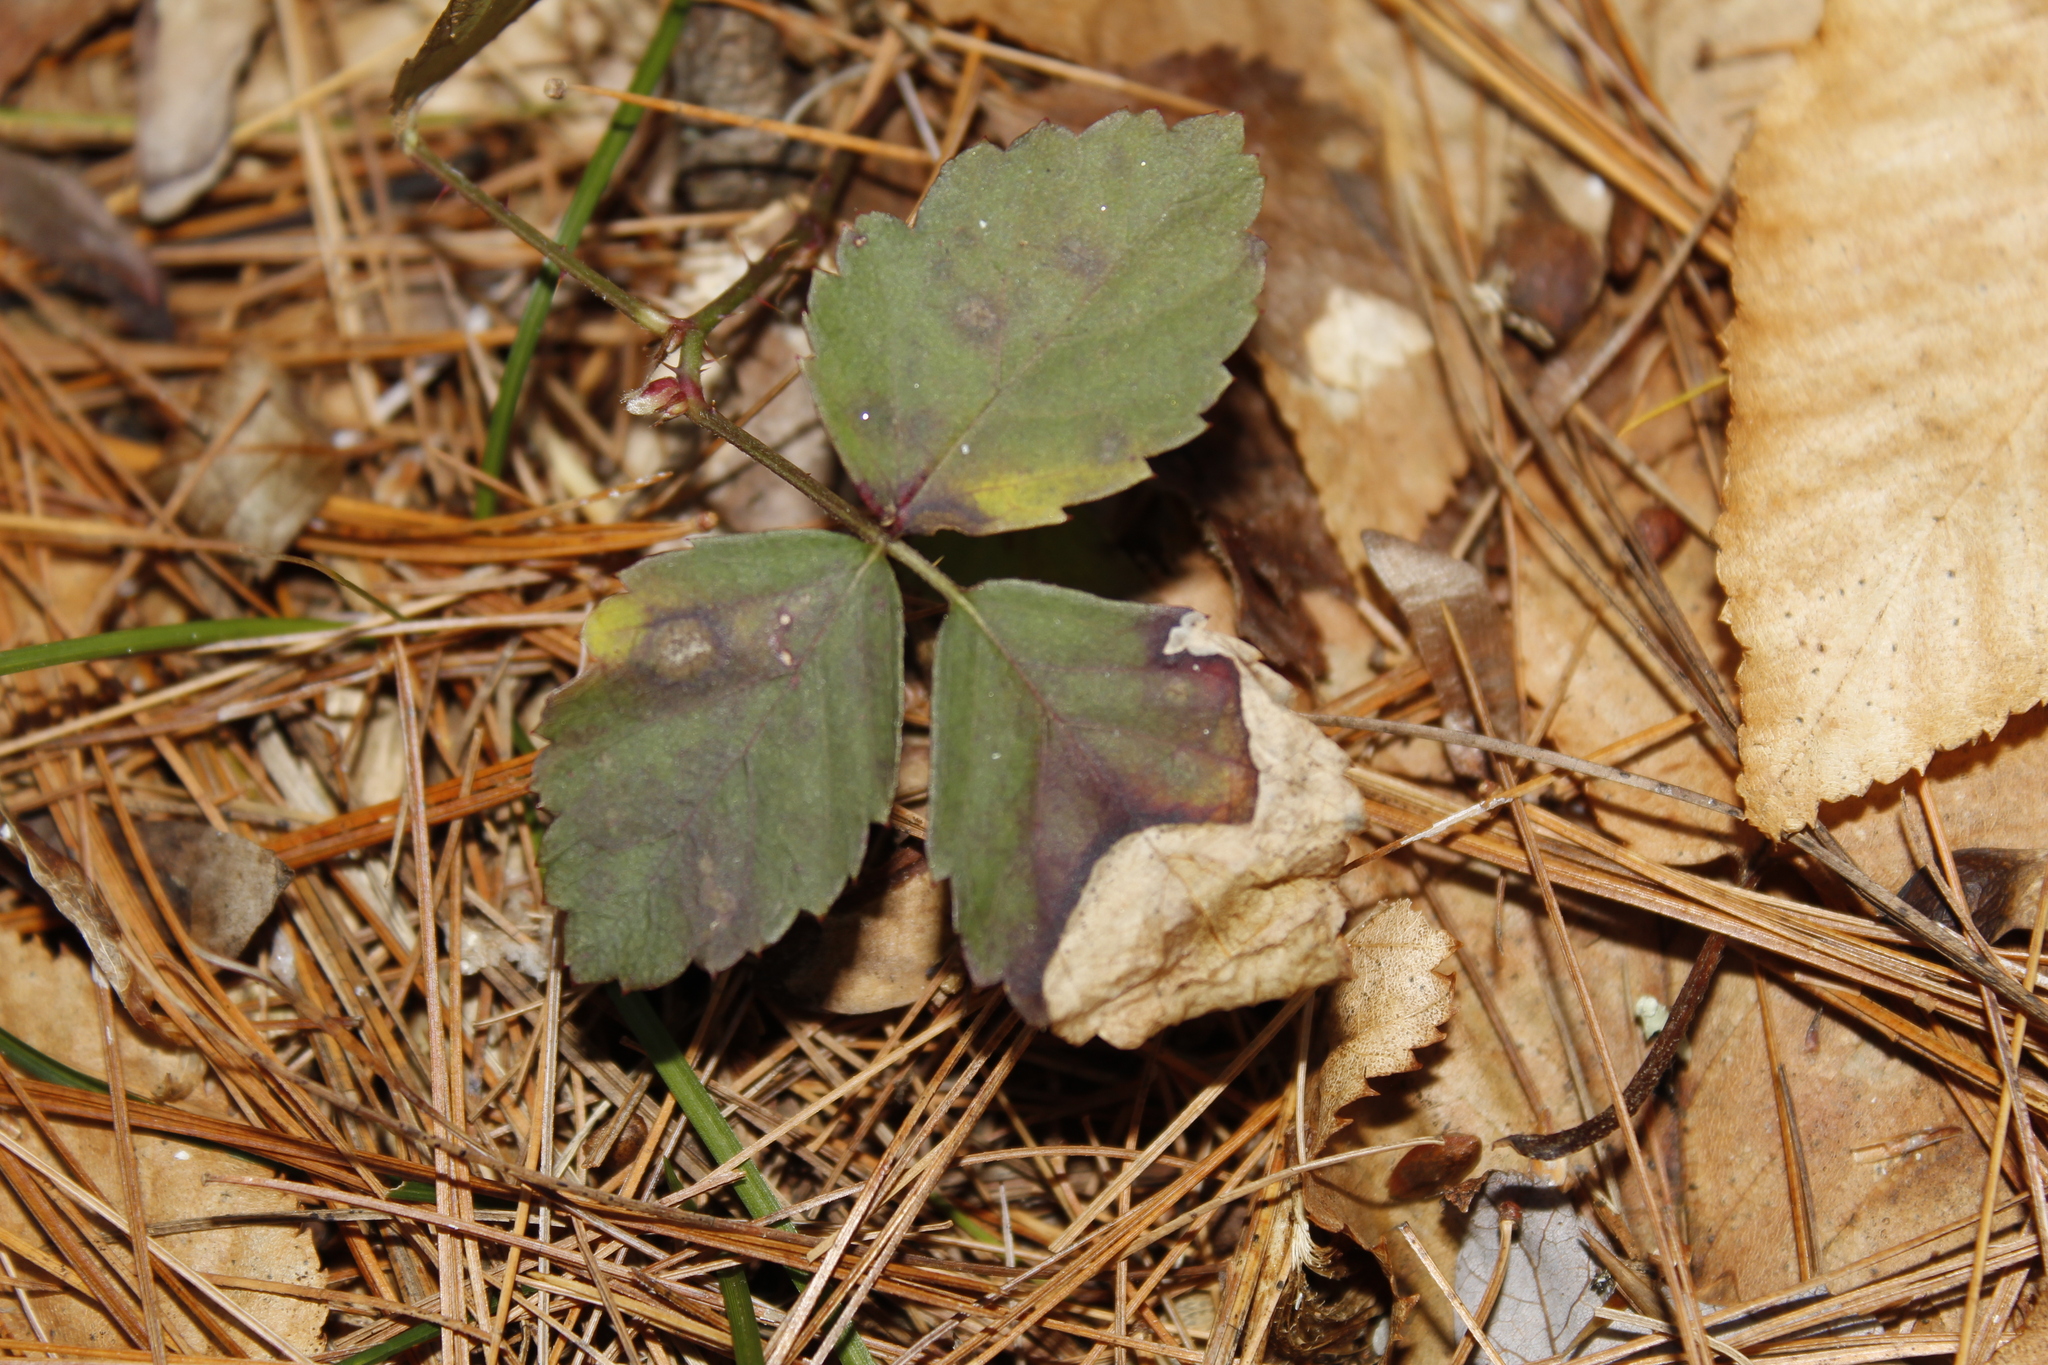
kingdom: Animalia
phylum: Arthropoda
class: Insecta
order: Hymenoptera
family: Tenthredinidae
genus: Metallus
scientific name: Metallus rohweri
